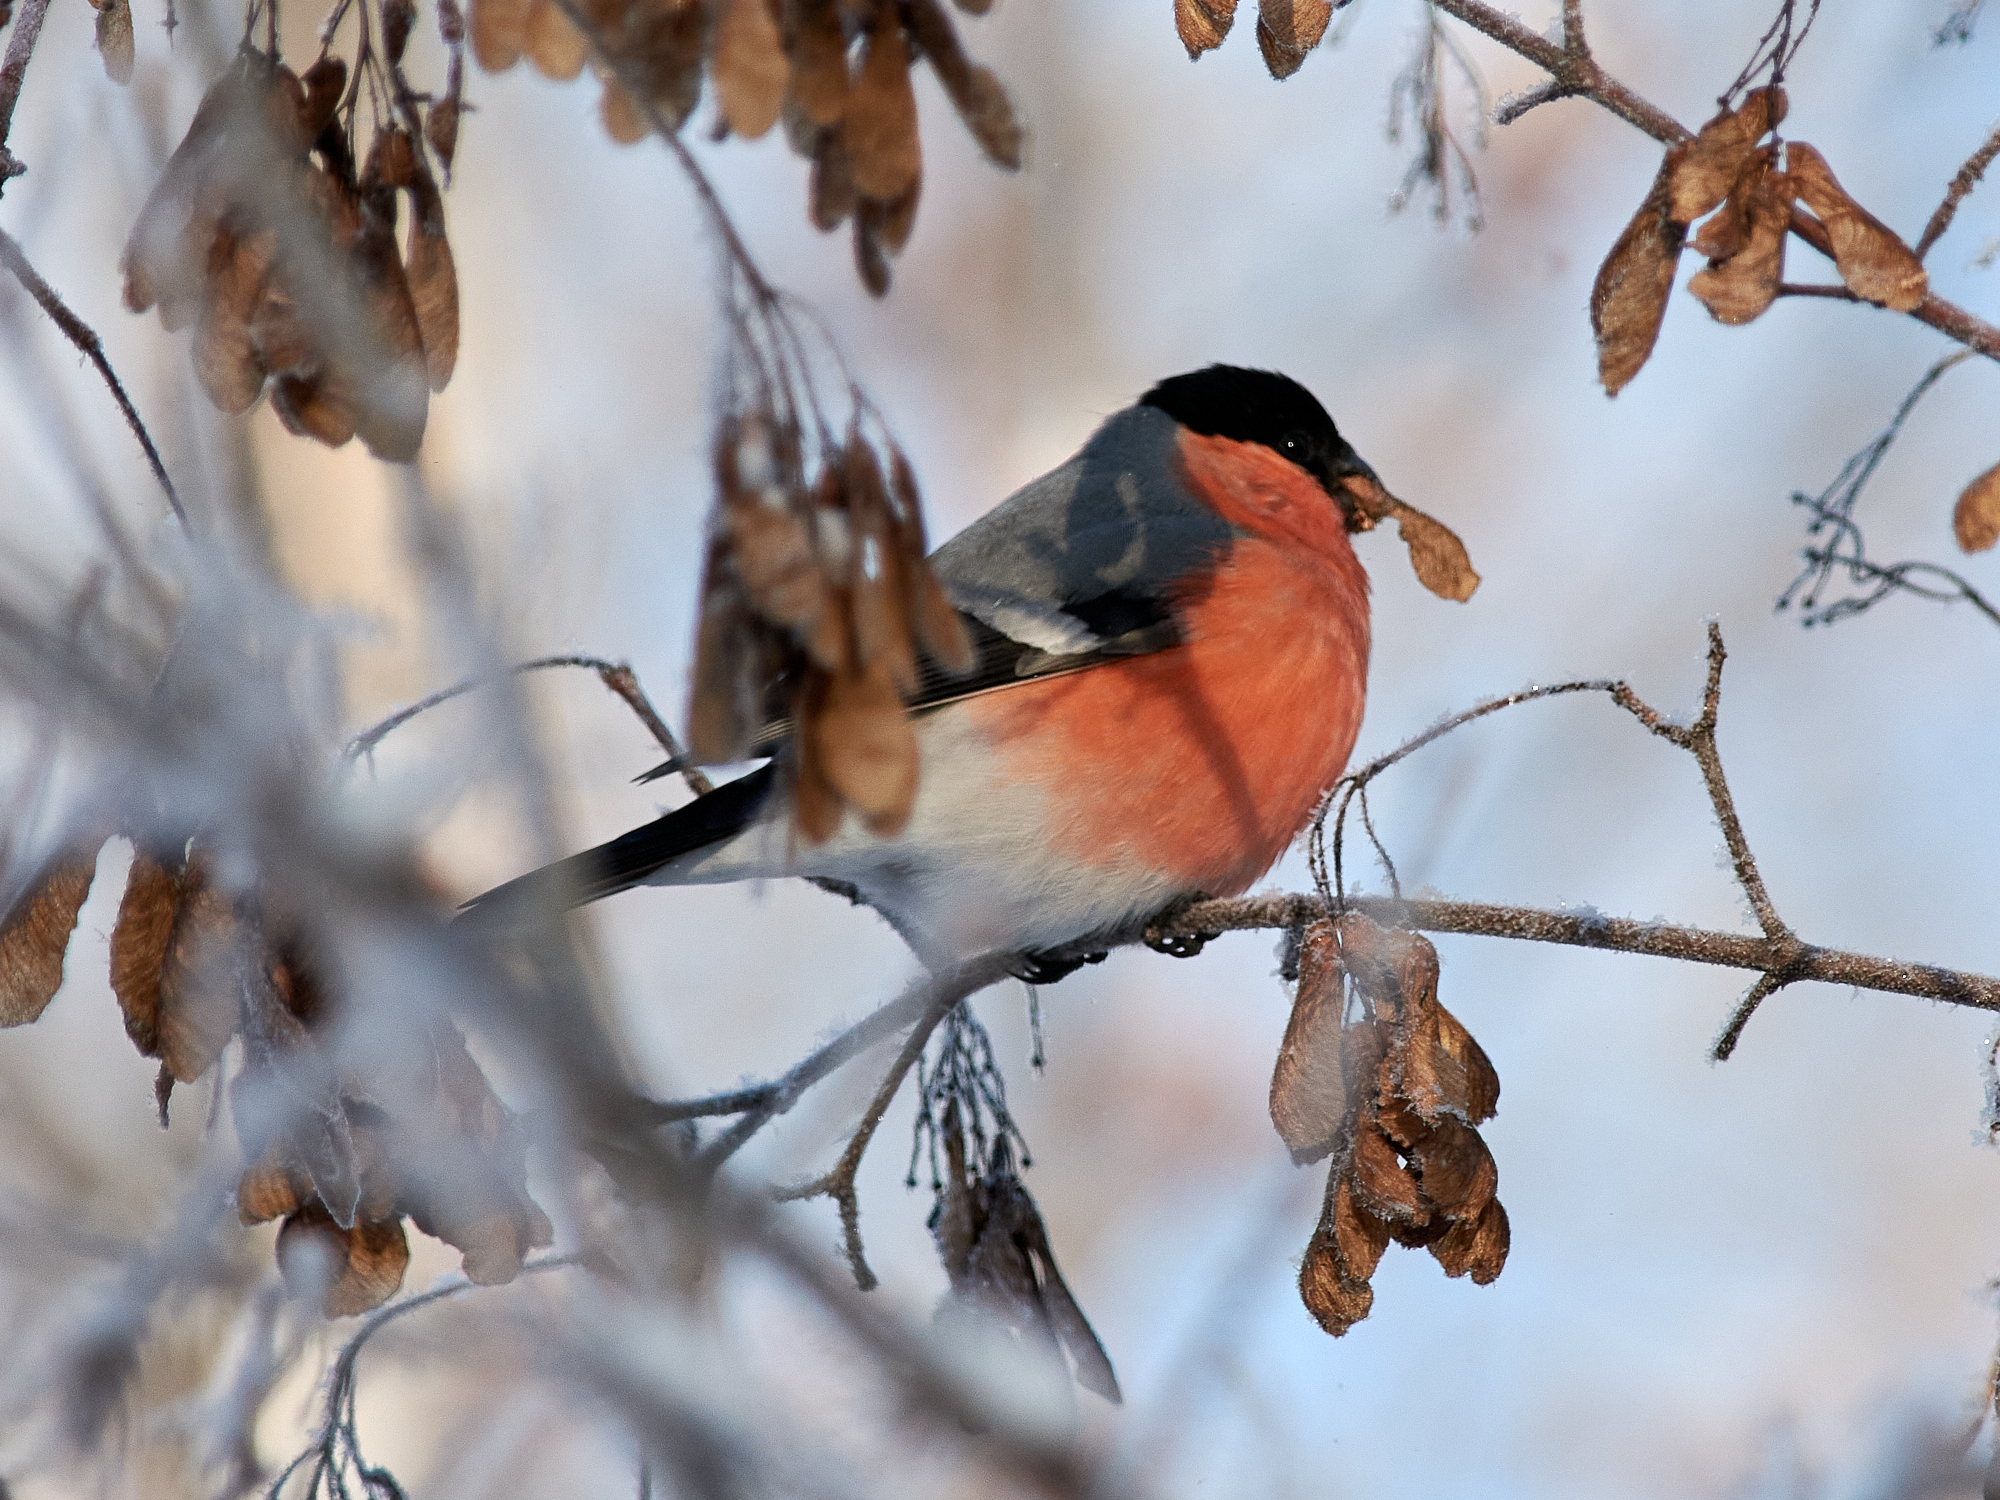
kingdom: Animalia
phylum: Chordata
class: Aves
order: Passeriformes
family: Fringillidae
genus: Pyrrhula
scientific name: Pyrrhula pyrrhula
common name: Eurasian bullfinch
